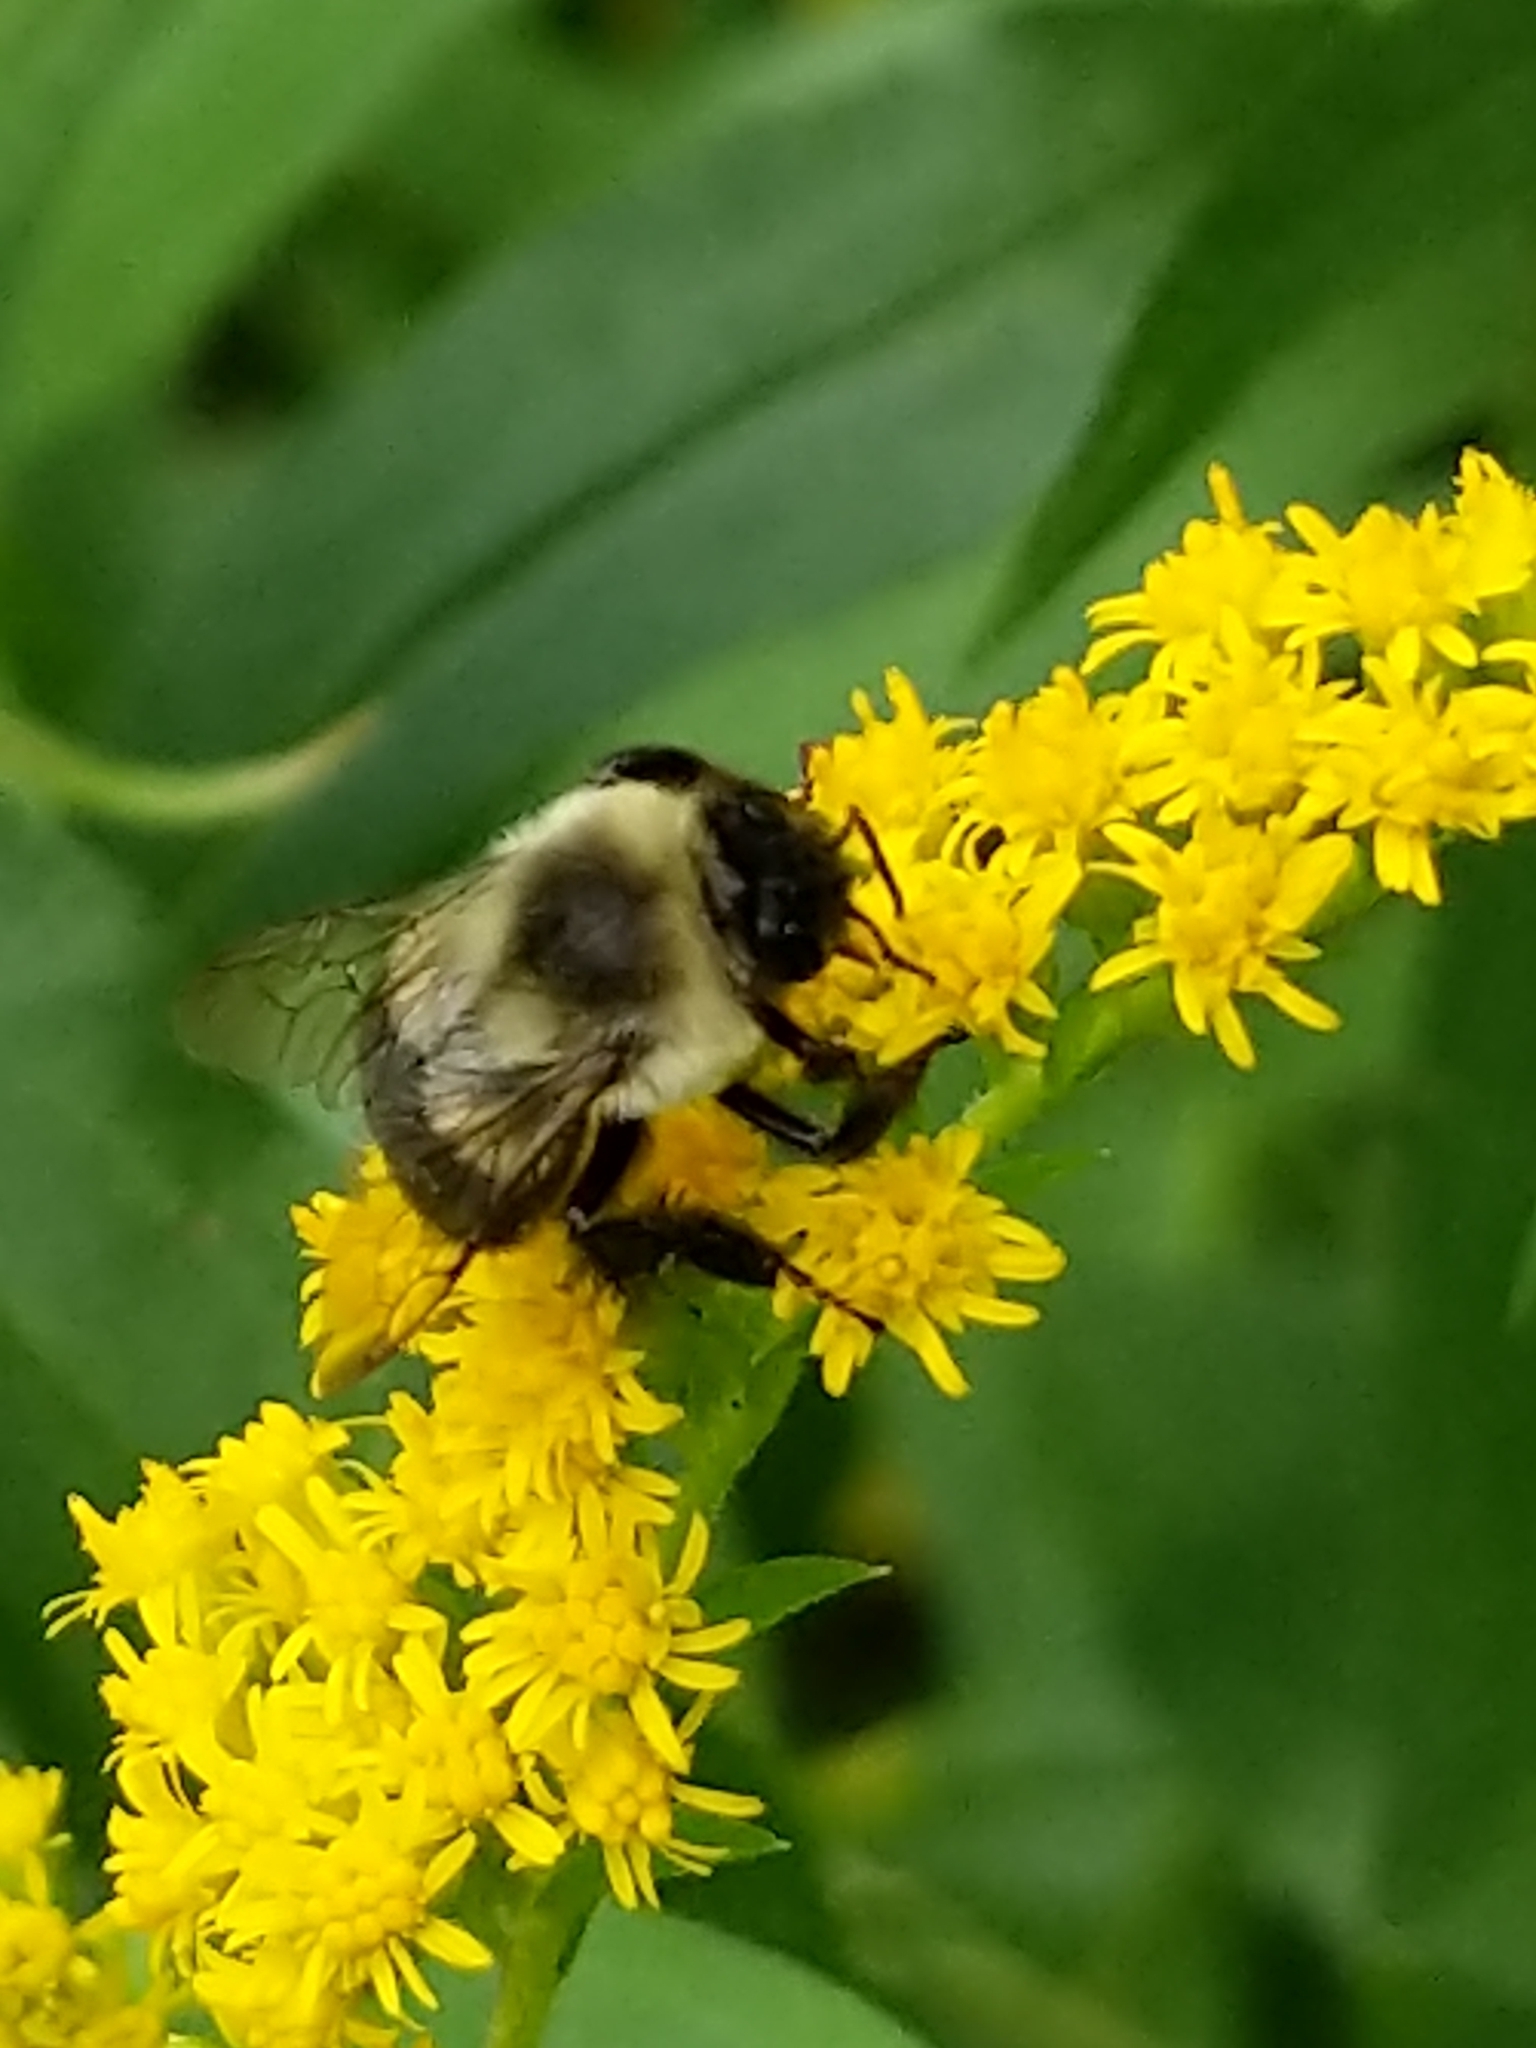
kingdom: Animalia
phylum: Arthropoda
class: Insecta
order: Hymenoptera
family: Apidae
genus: Bombus
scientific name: Bombus impatiens
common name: Common eastern bumble bee
